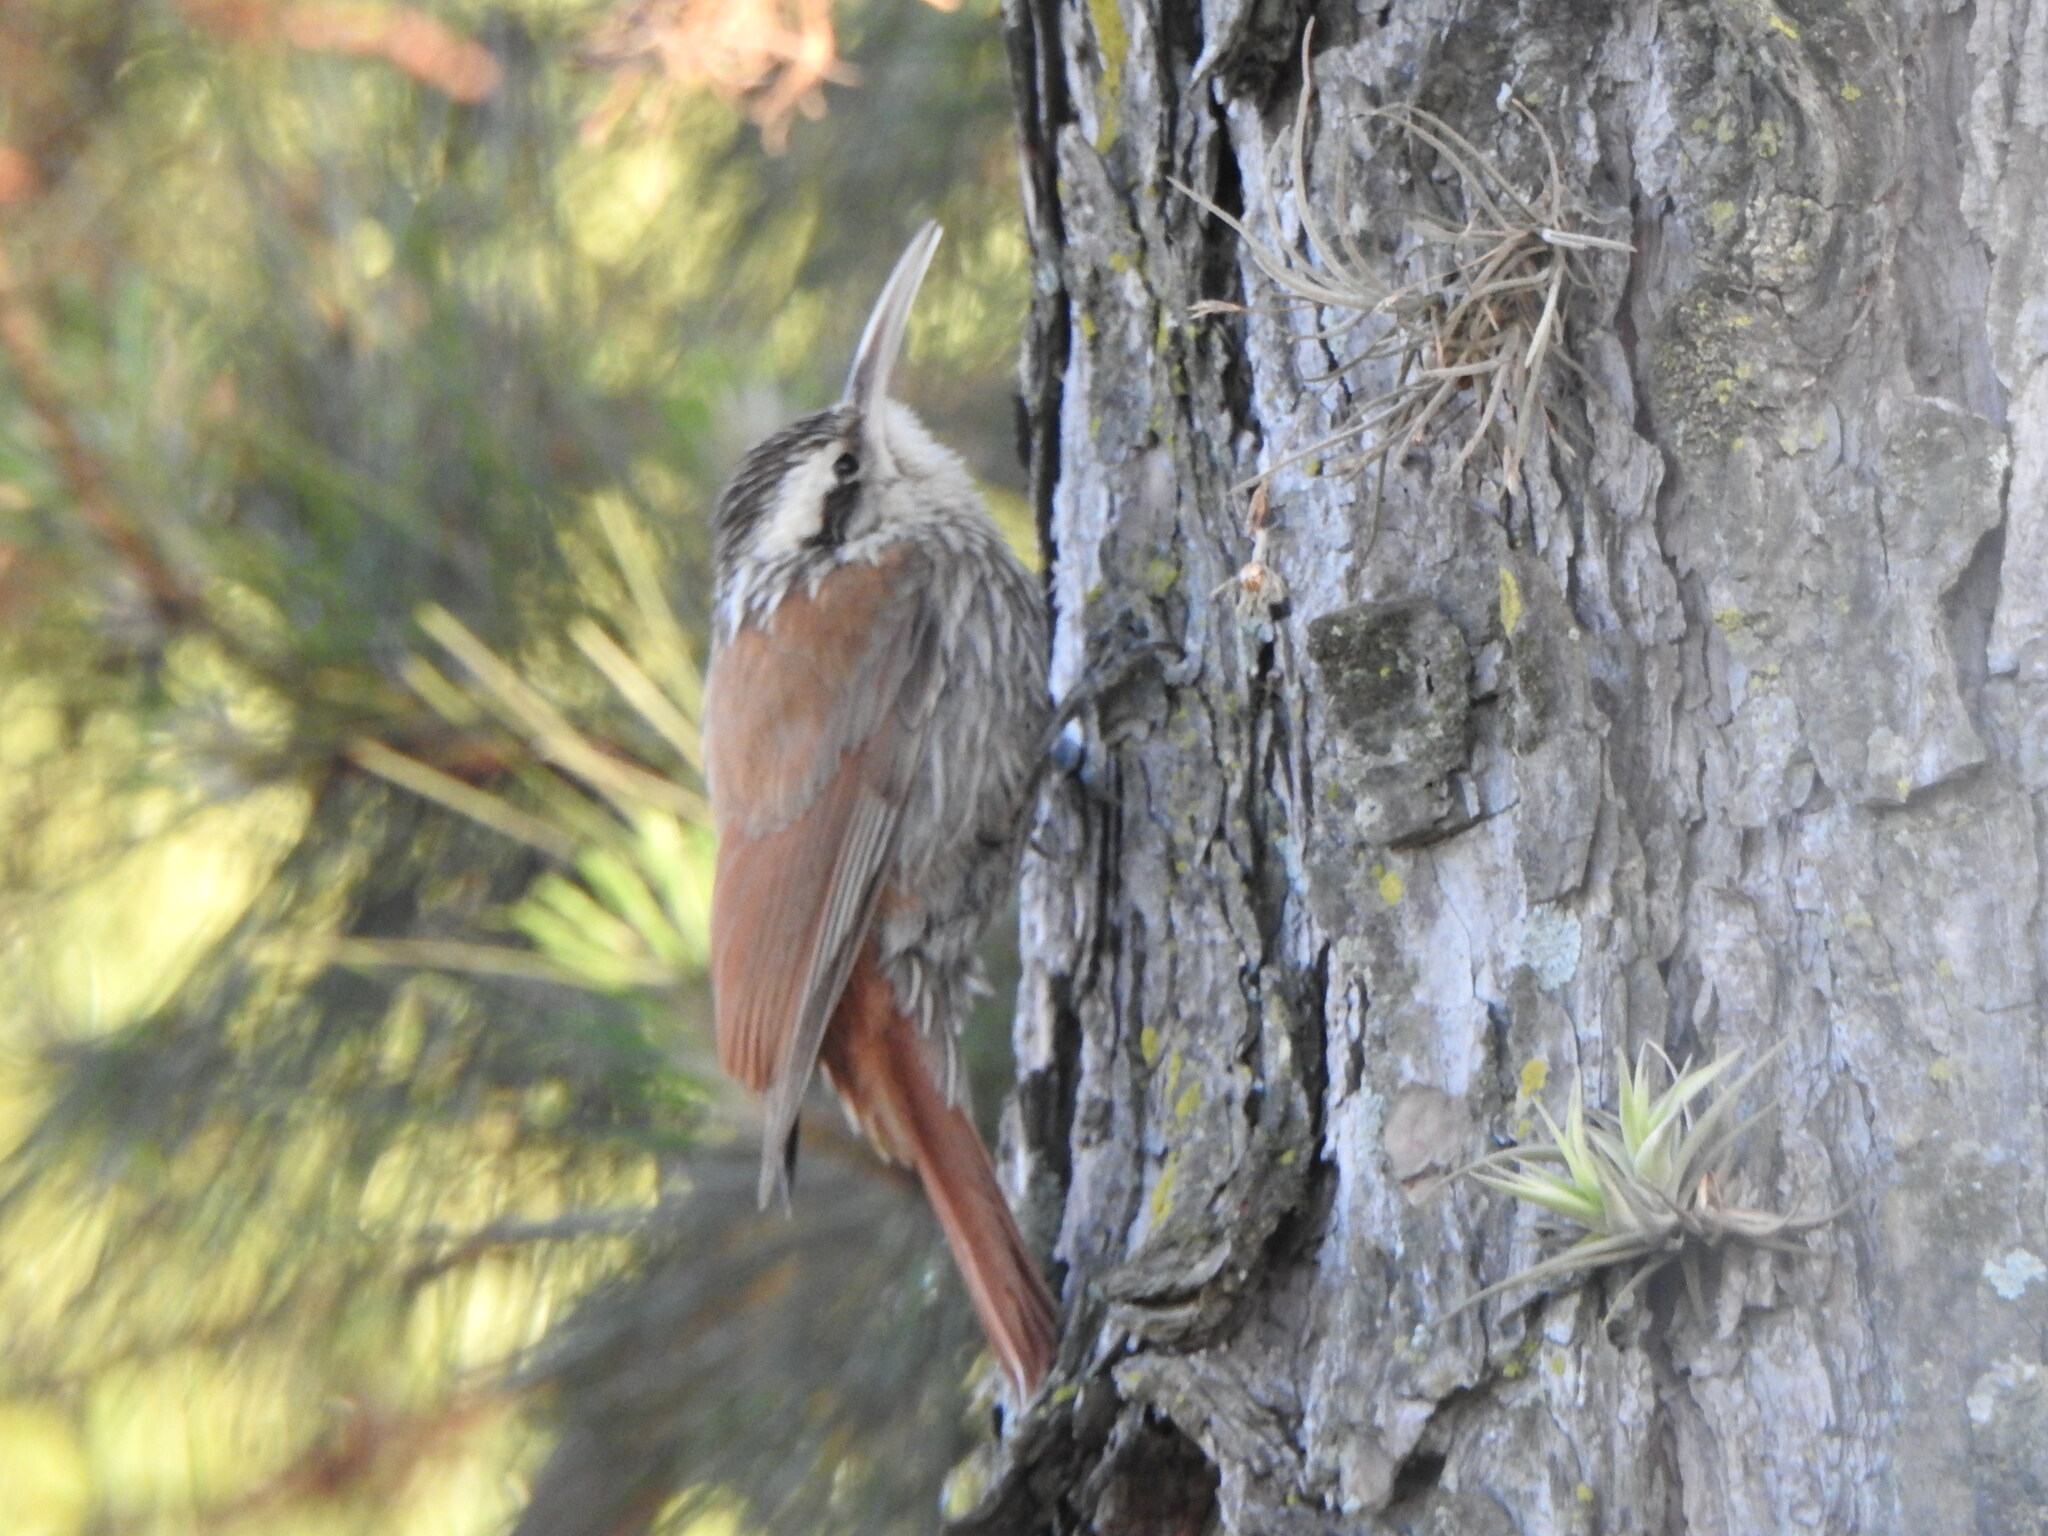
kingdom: Animalia
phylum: Chordata
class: Aves
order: Passeriformes
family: Furnariidae
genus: Lepidocolaptes
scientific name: Lepidocolaptes angustirostris
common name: Narrow-billed woodcreeper
